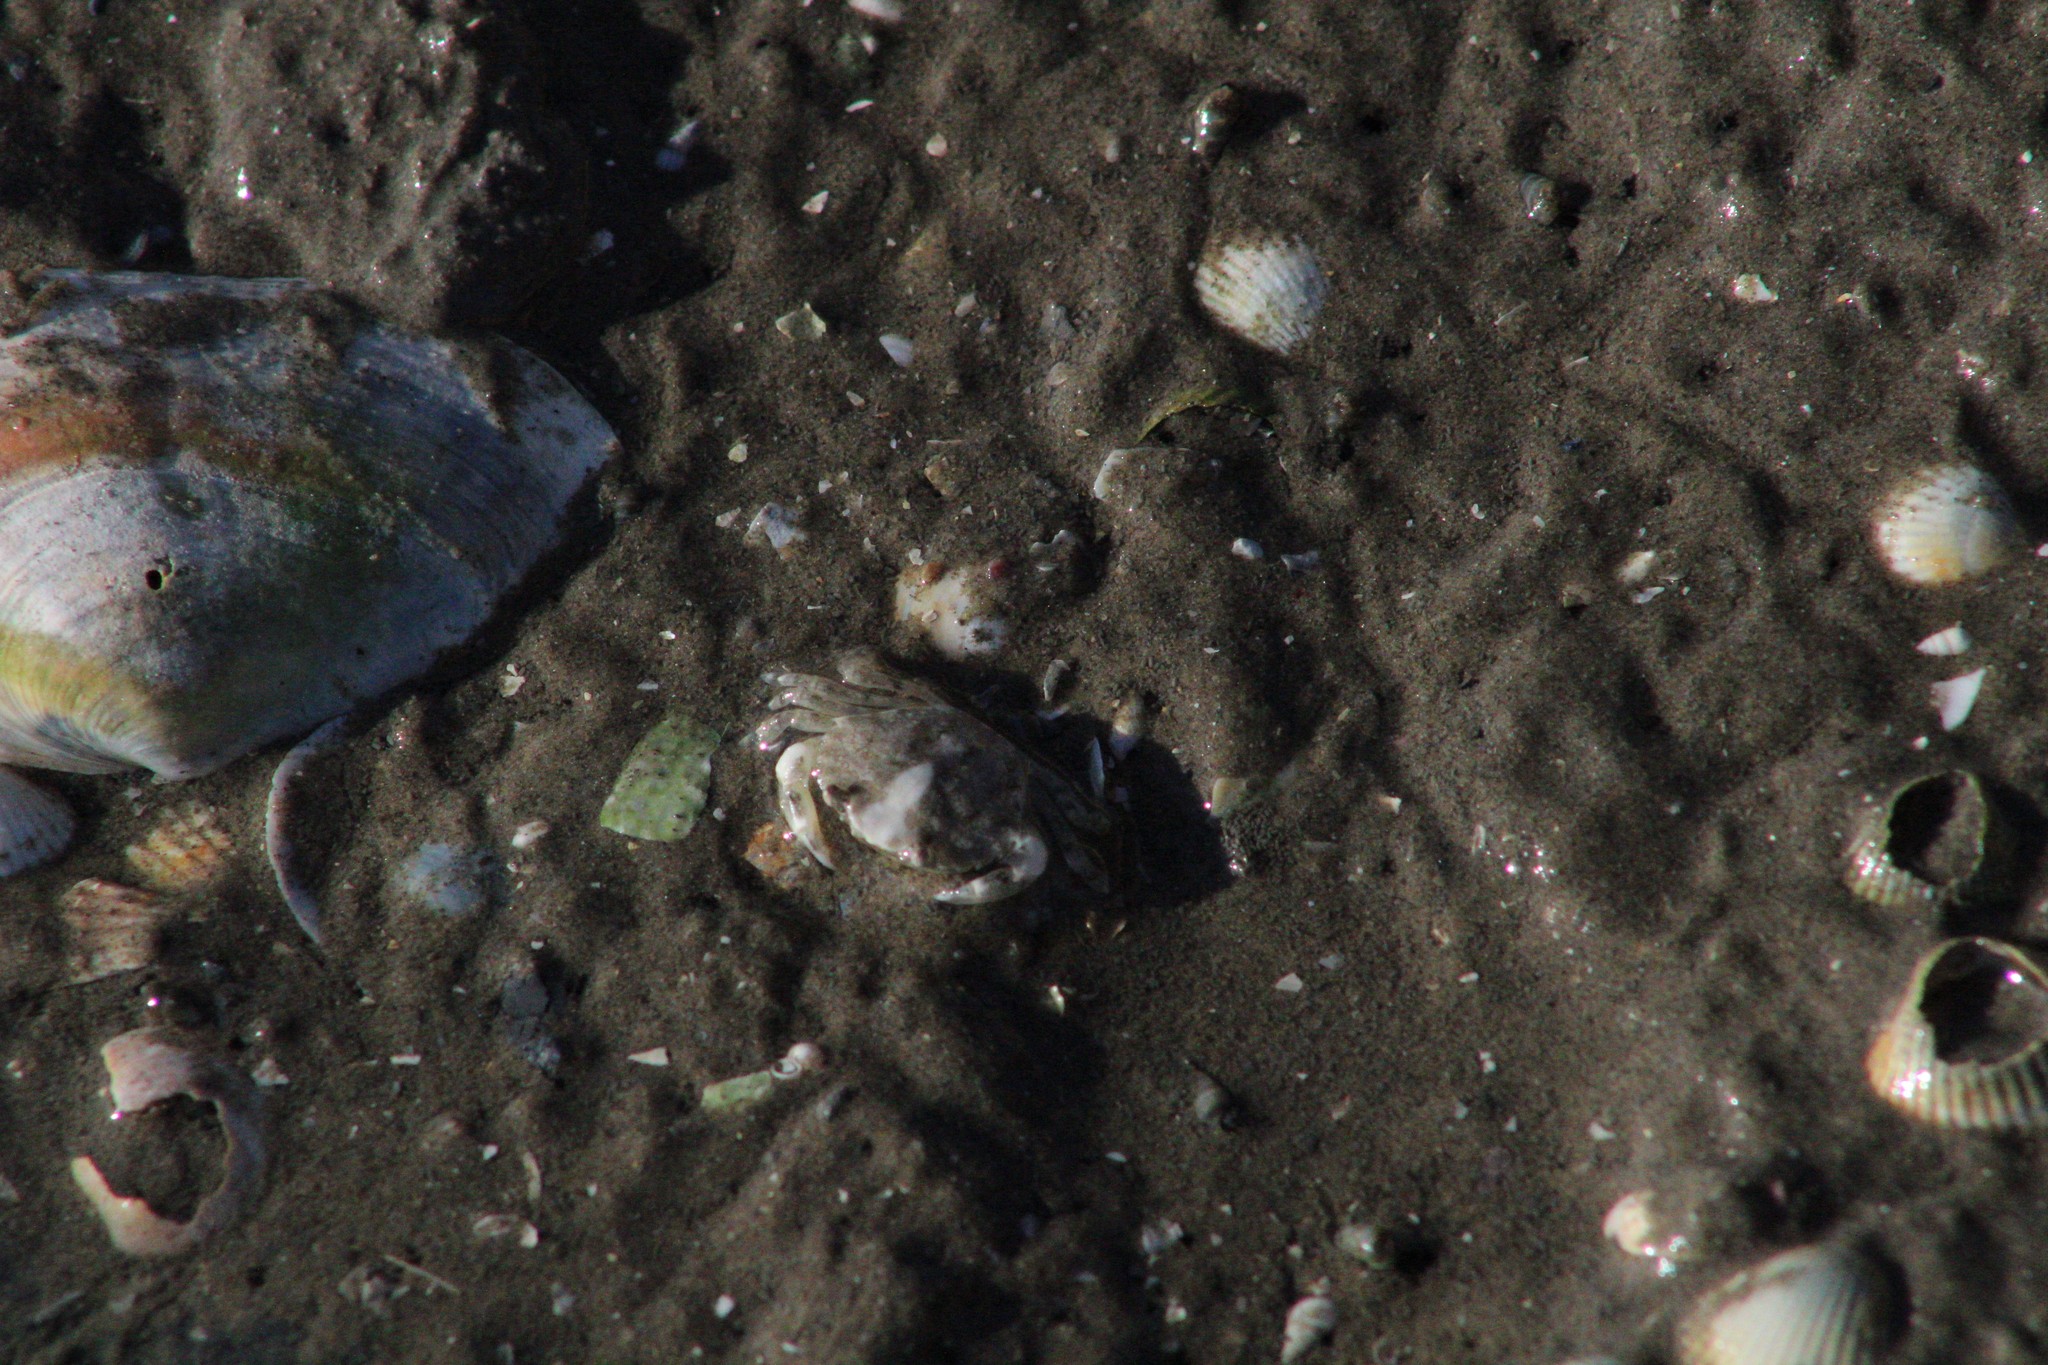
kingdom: Animalia
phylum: Arthropoda
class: Malacostraca
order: Decapoda
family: Carcinidae
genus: Carcinus
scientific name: Carcinus maenas
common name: European green crab
